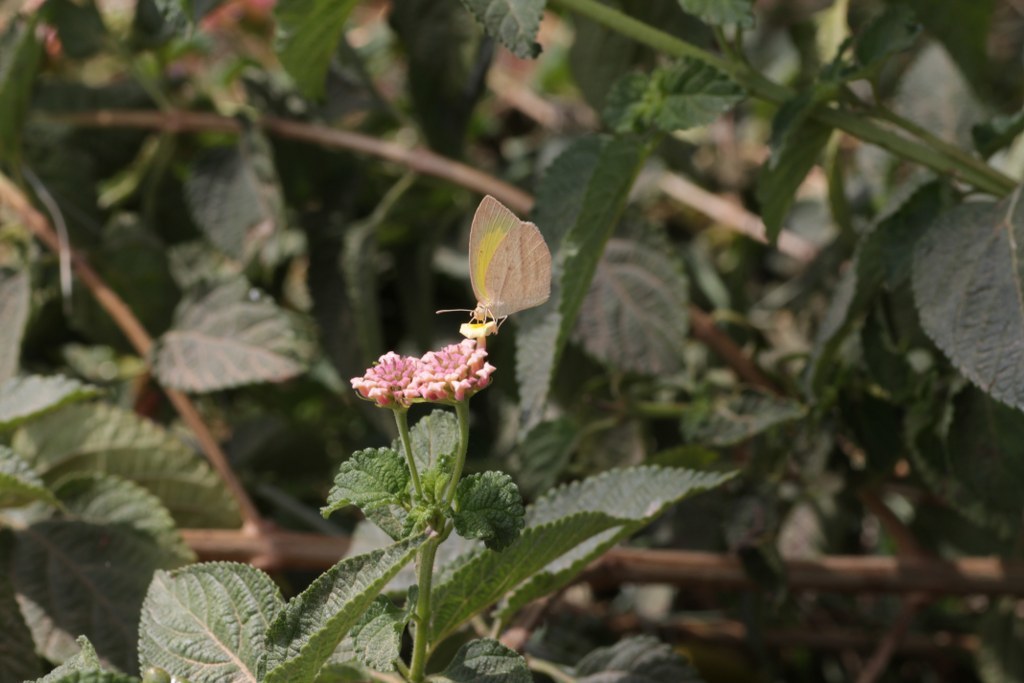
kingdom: Animalia
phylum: Arthropoda
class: Insecta
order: Lepidoptera
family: Pieridae
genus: Eurema
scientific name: Eurema laeta
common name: Spotless grass yellow
